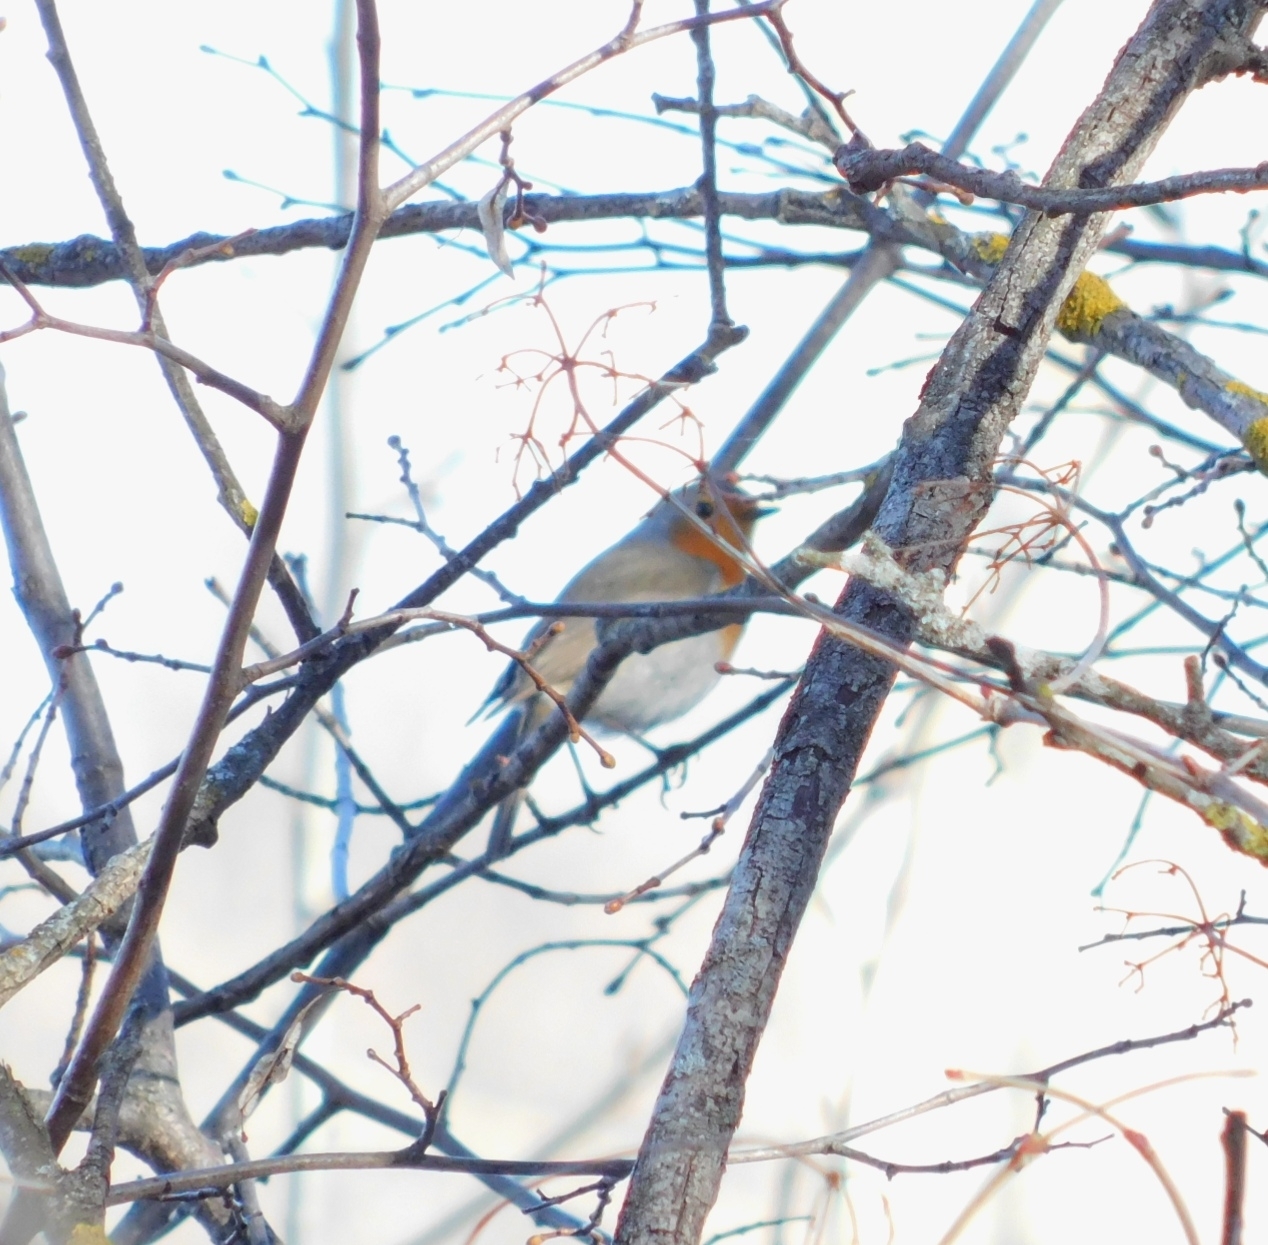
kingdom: Animalia
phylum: Chordata
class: Aves
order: Passeriformes
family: Muscicapidae
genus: Erithacus
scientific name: Erithacus rubecula
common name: European robin
